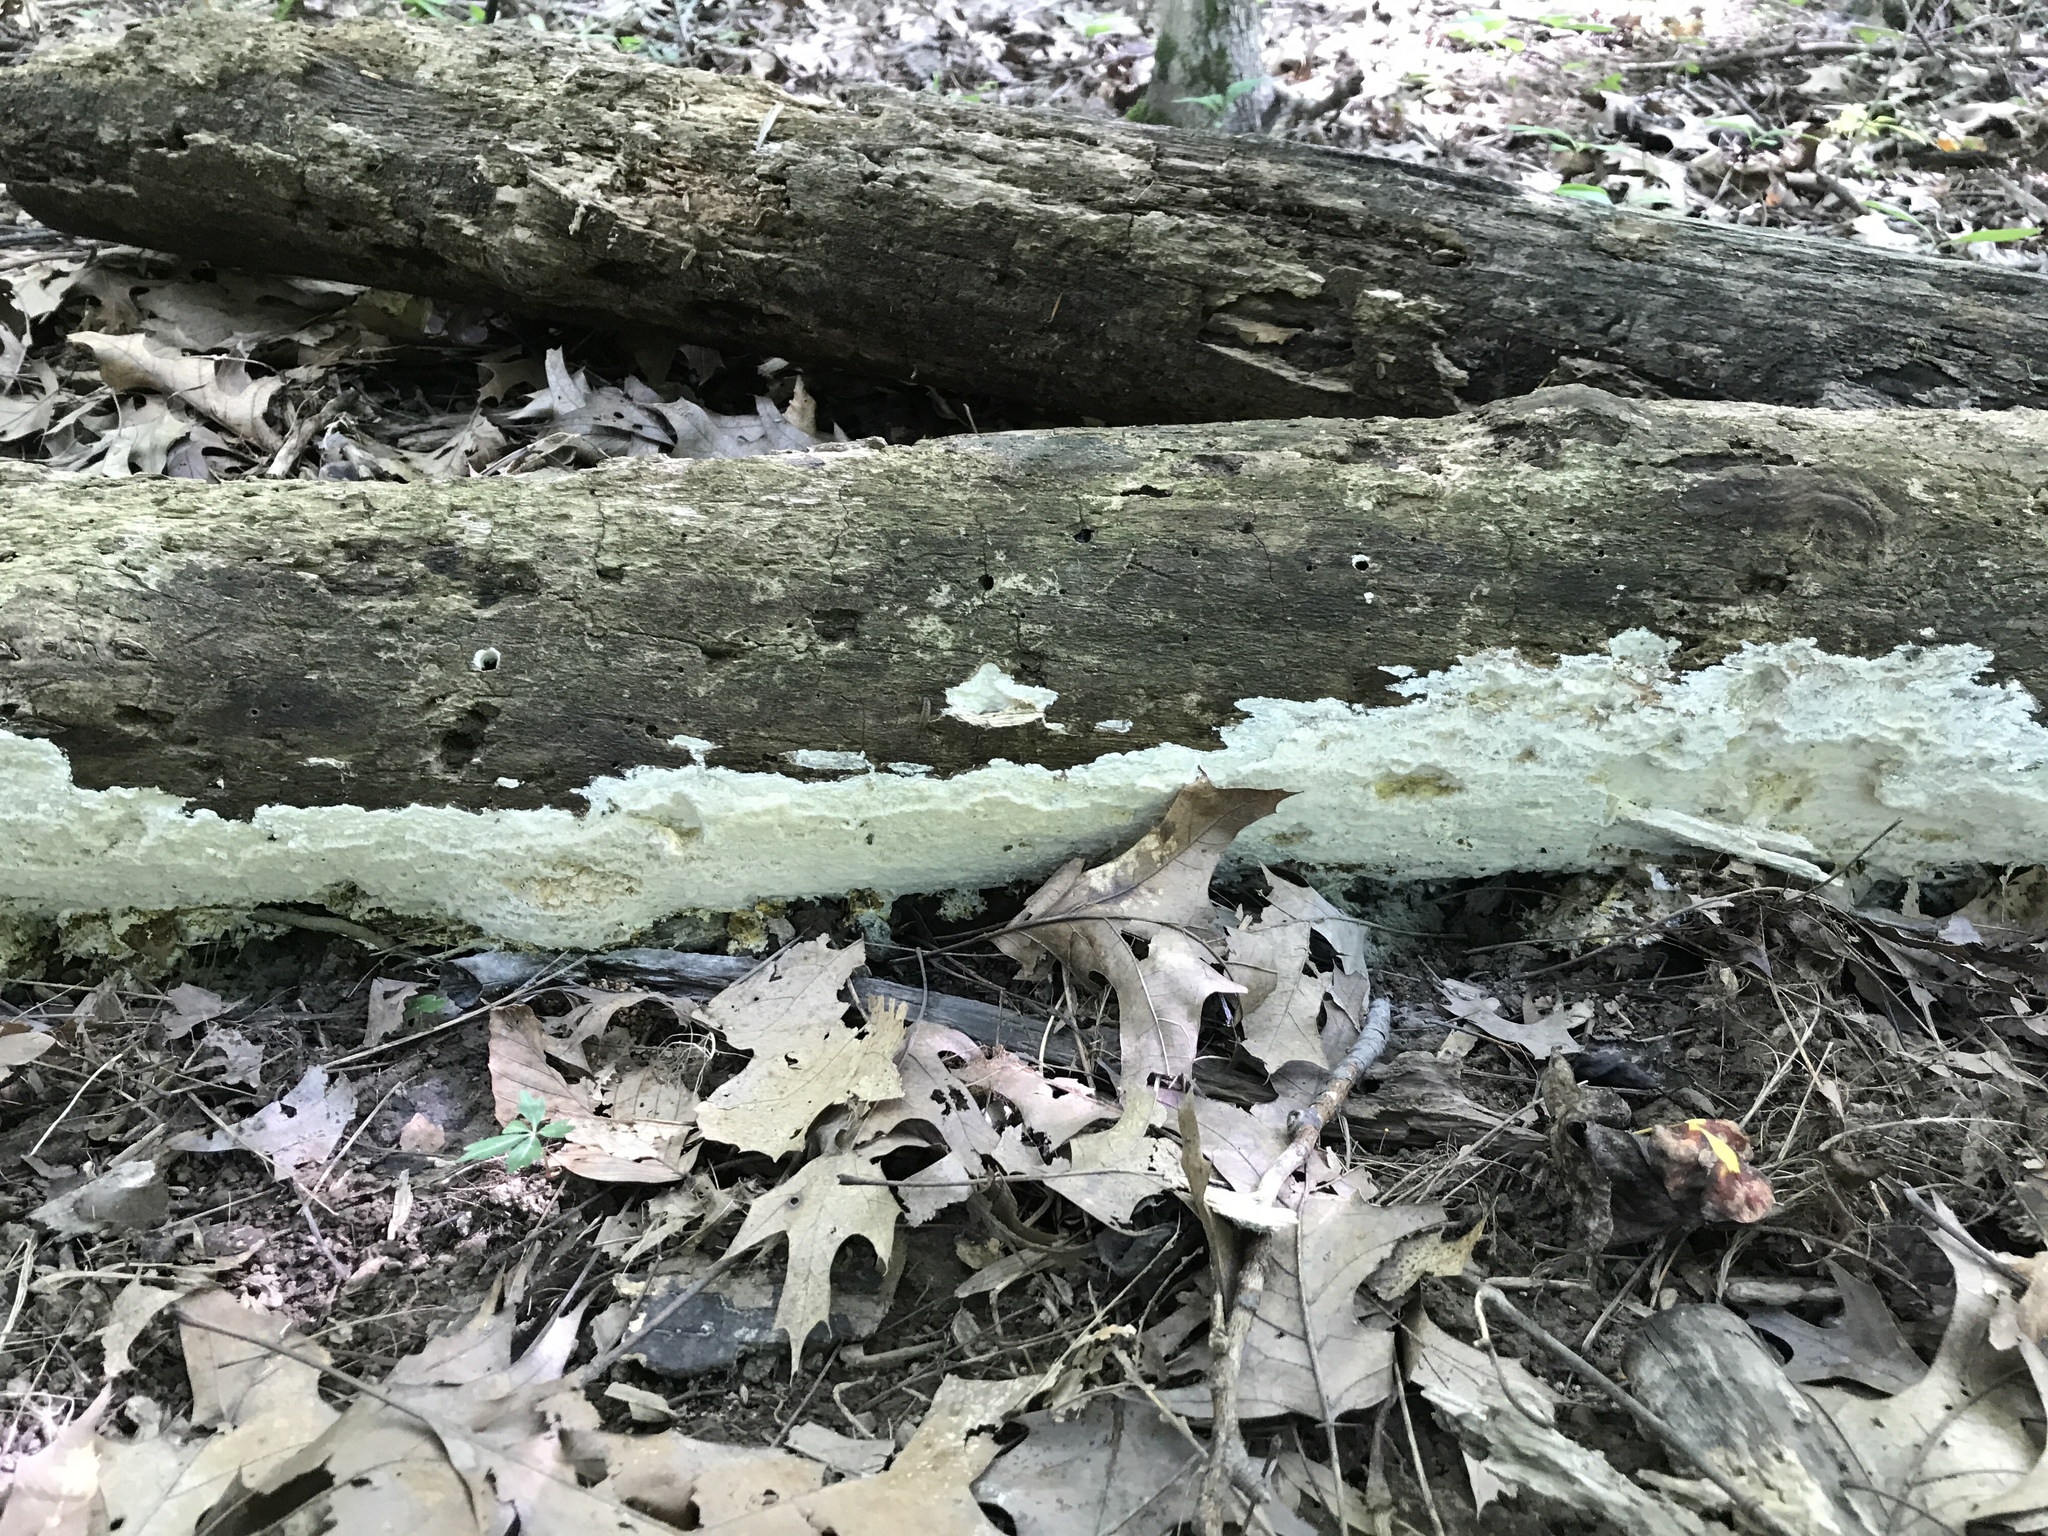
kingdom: Fungi
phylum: Basidiomycota
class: Agaricomycetes
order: Polyporales
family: Polyporaceae
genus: Perenniporia
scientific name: Perenniporia bostonensis
